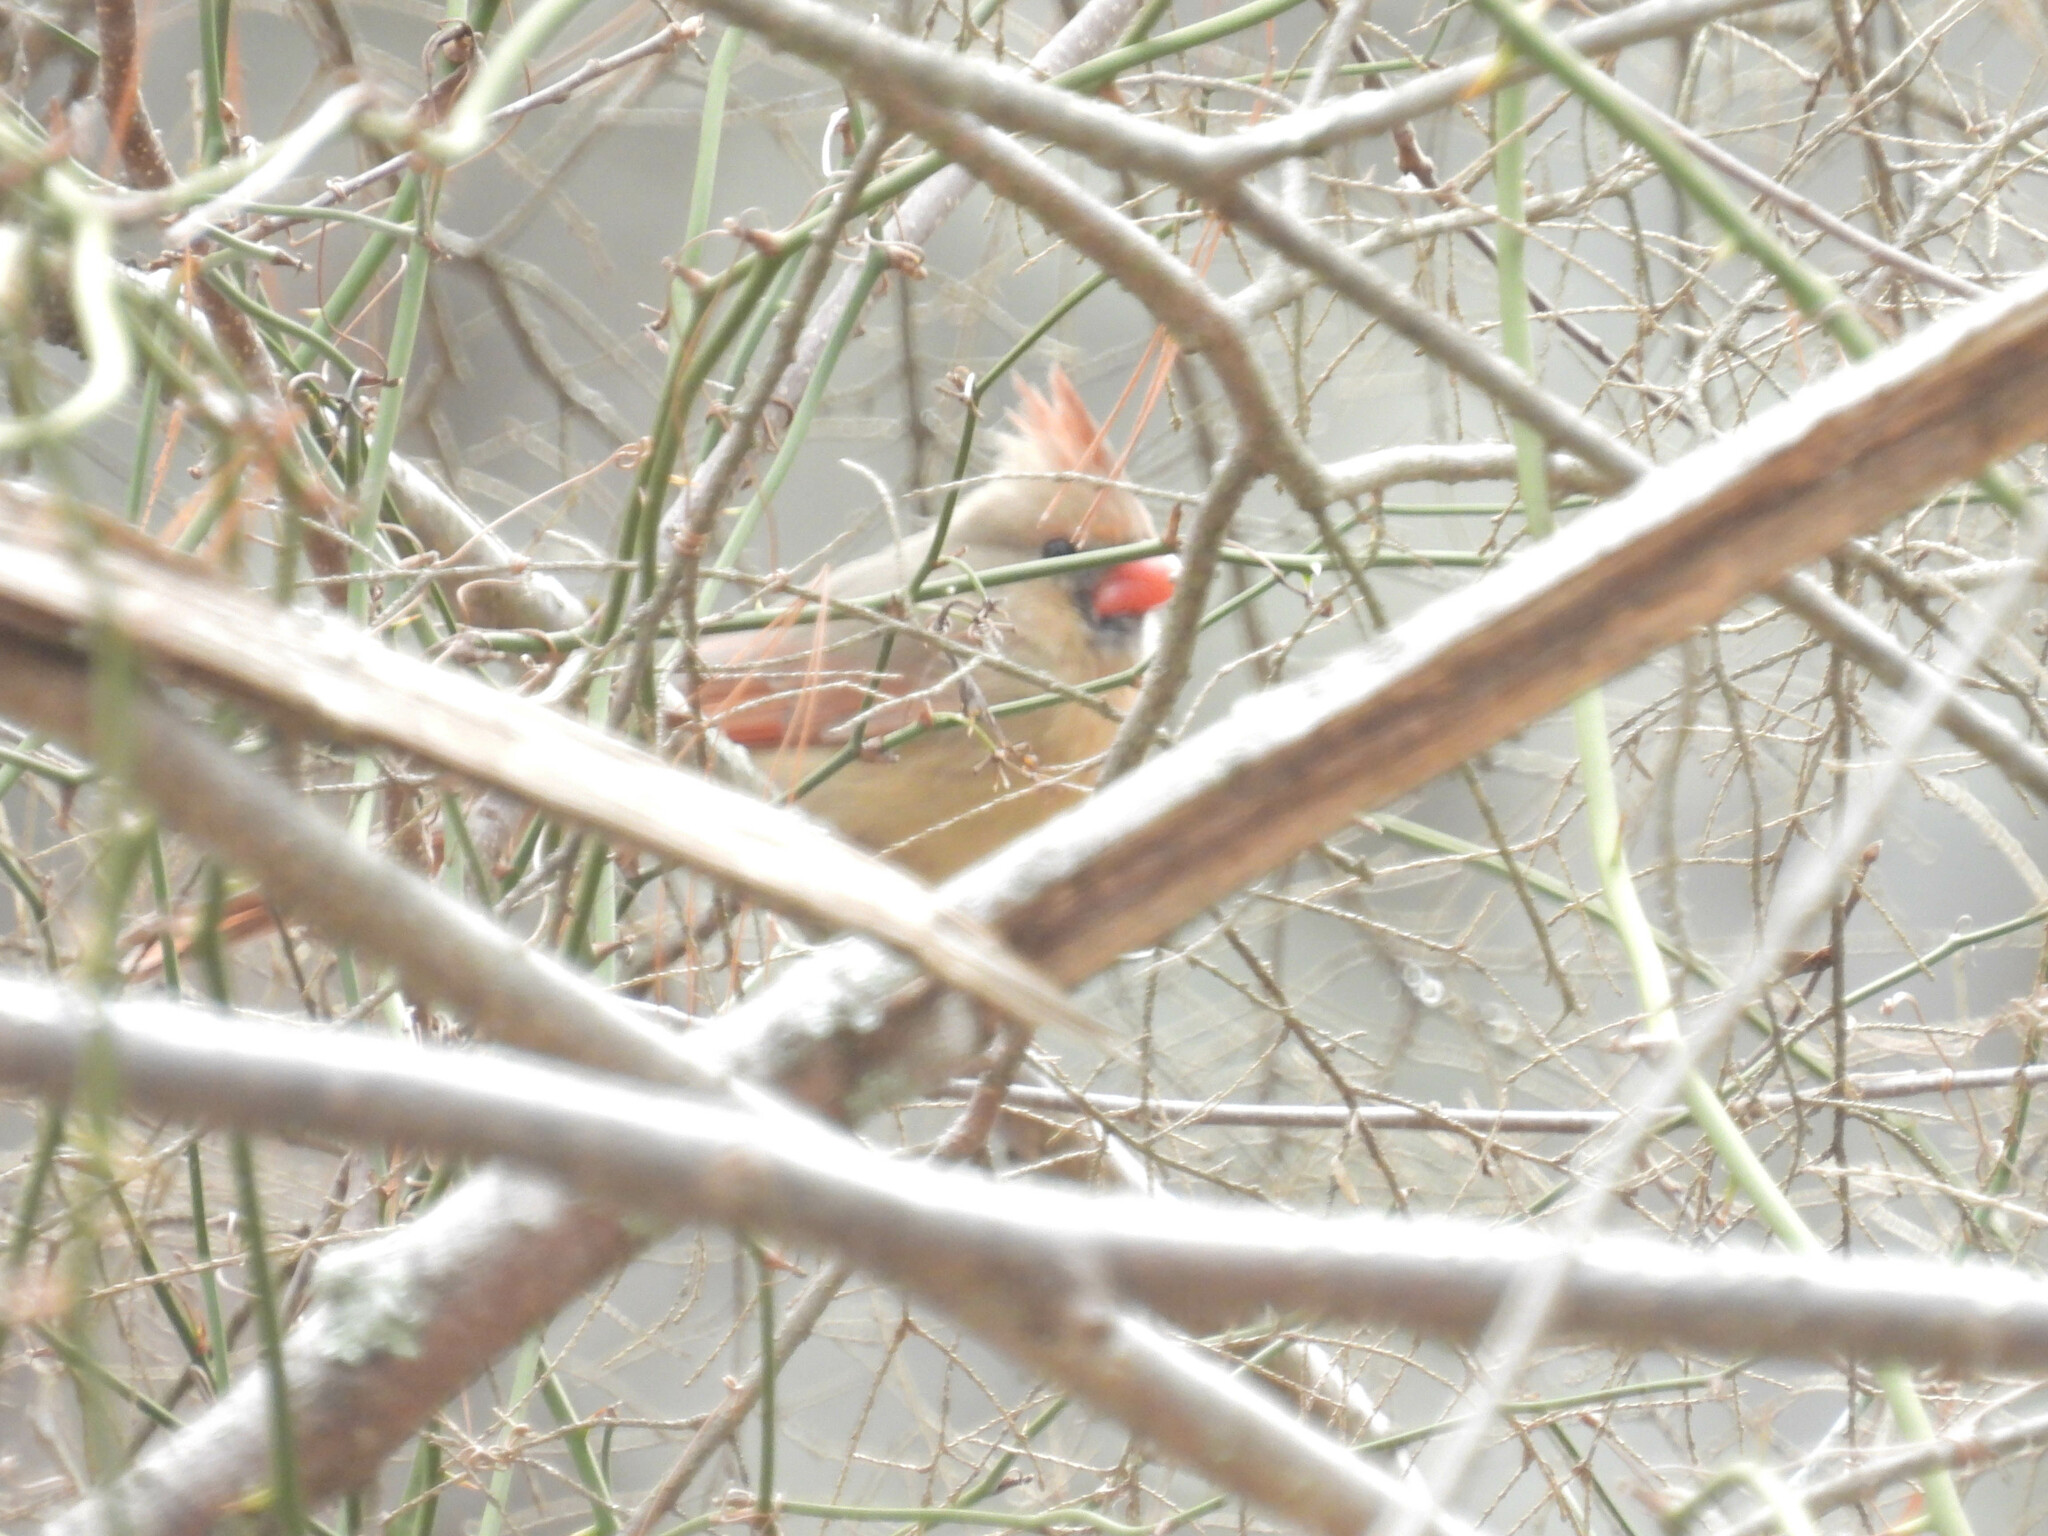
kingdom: Animalia
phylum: Chordata
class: Aves
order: Passeriformes
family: Cardinalidae
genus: Cardinalis
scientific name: Cardinalis cardinalis
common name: Northern cardinal
